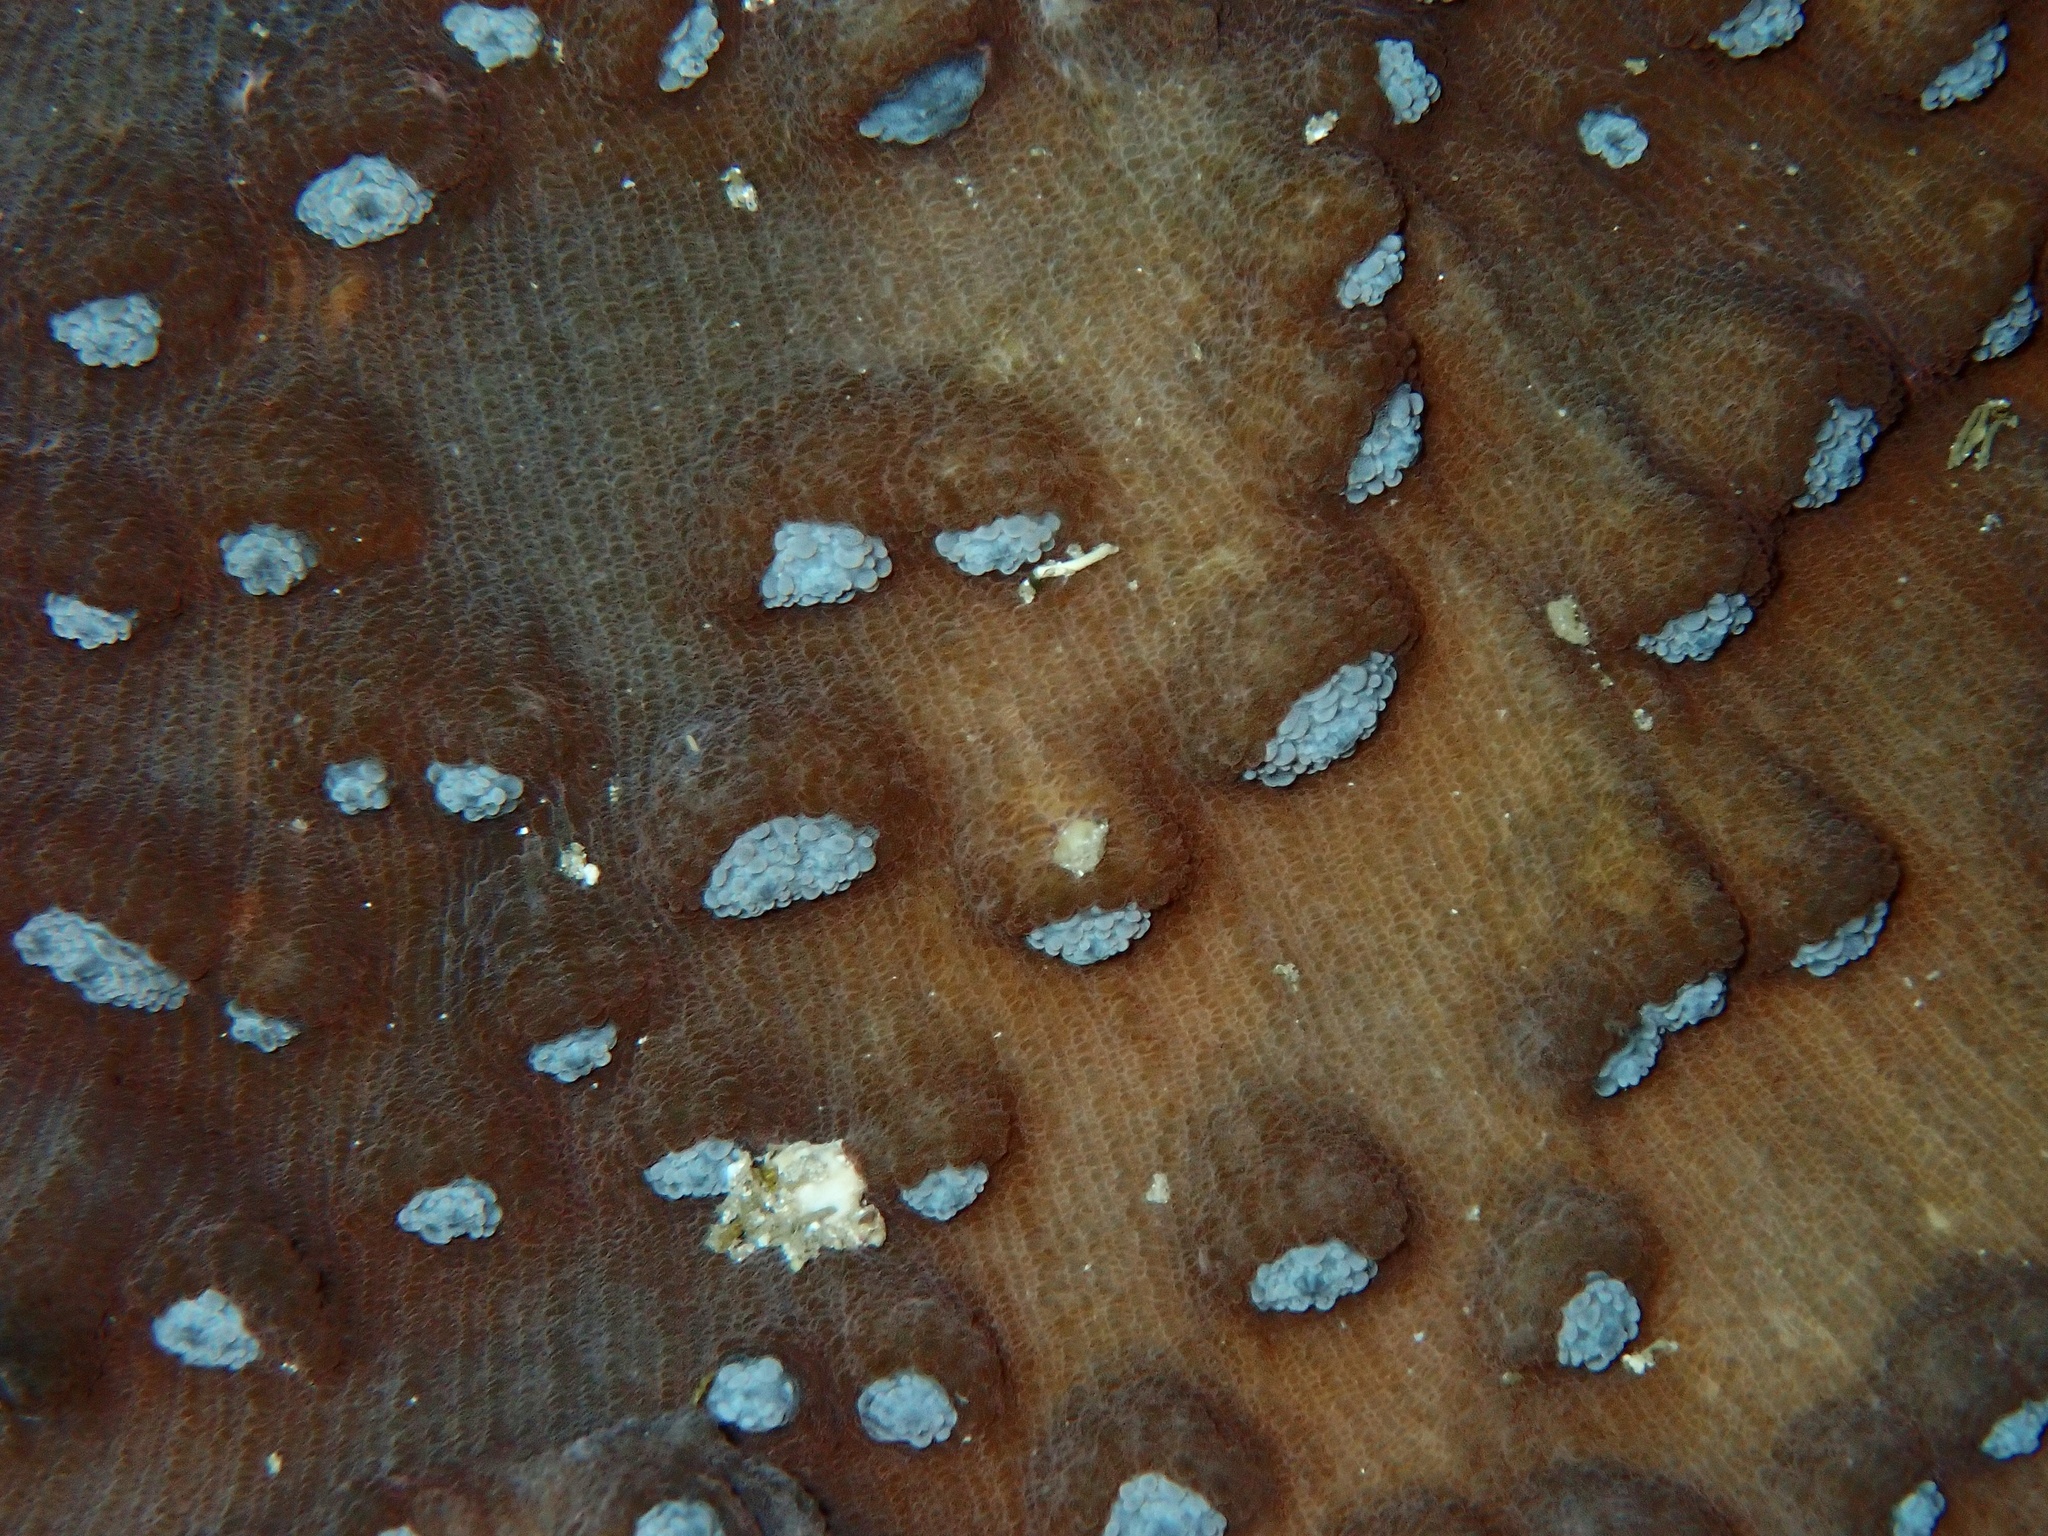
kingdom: Animalia
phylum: Cnidaria
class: Anthozoa
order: Scleractinia
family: Merulinidae
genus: Mycedium
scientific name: Mycedium elephantotus
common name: Chinese lettuce coral
